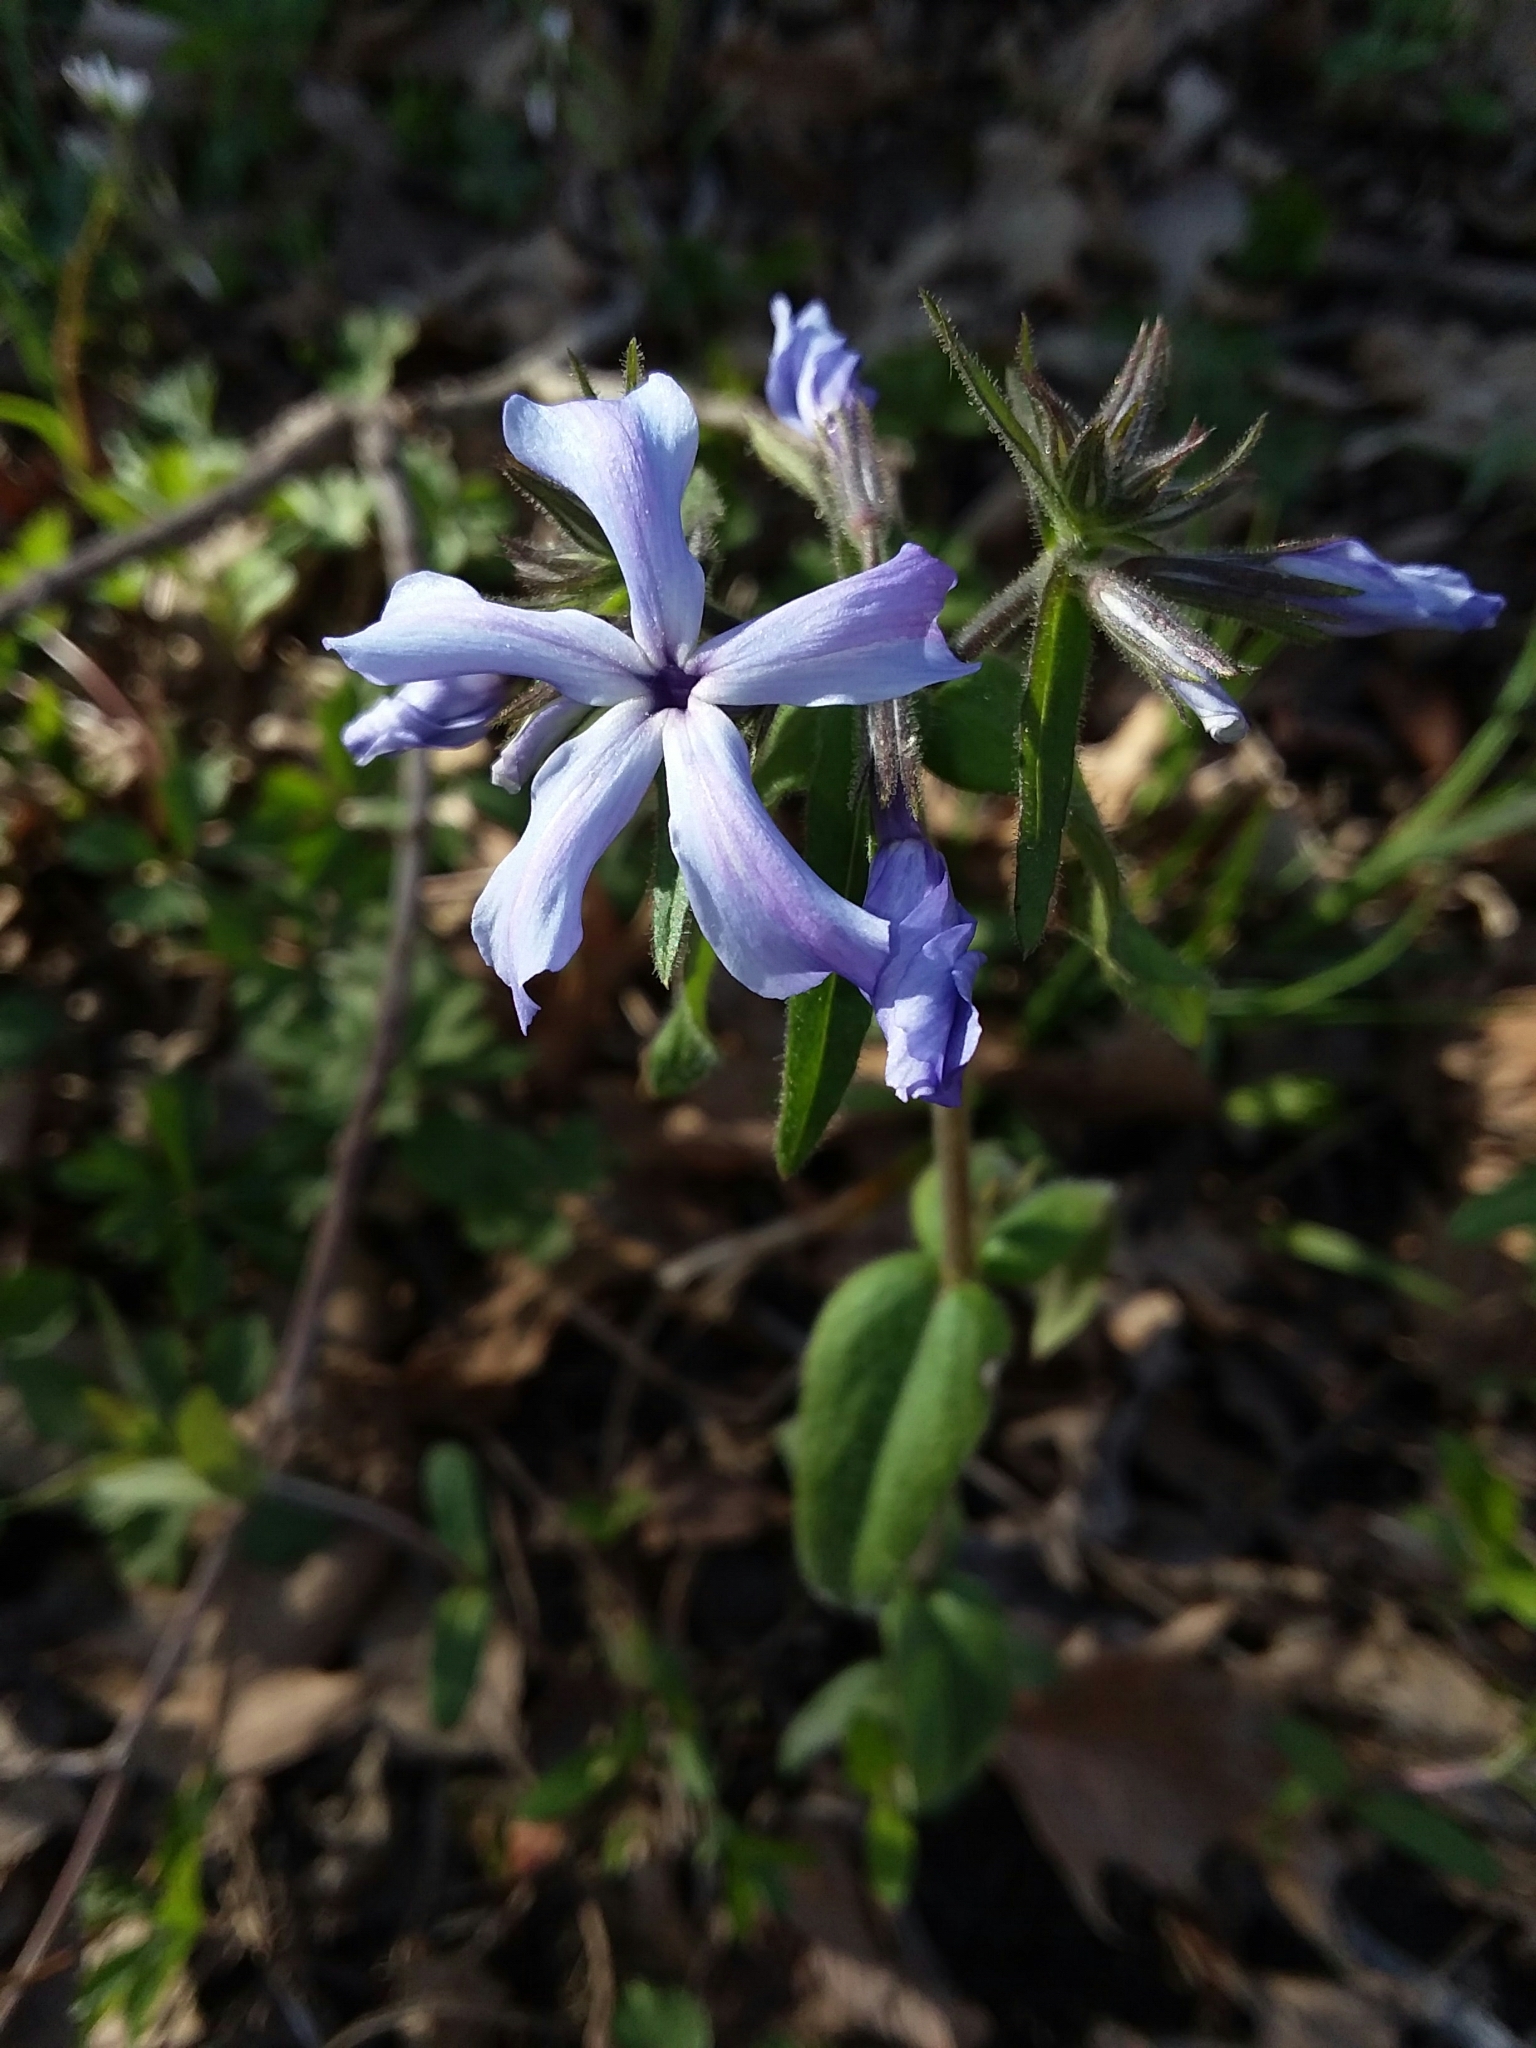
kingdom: Plantae
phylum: Tracheophyta
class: Magnoliopsida
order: Ericales
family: Polemoniaceae
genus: Phlox
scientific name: Phlox divaricata
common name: Blue phlox
